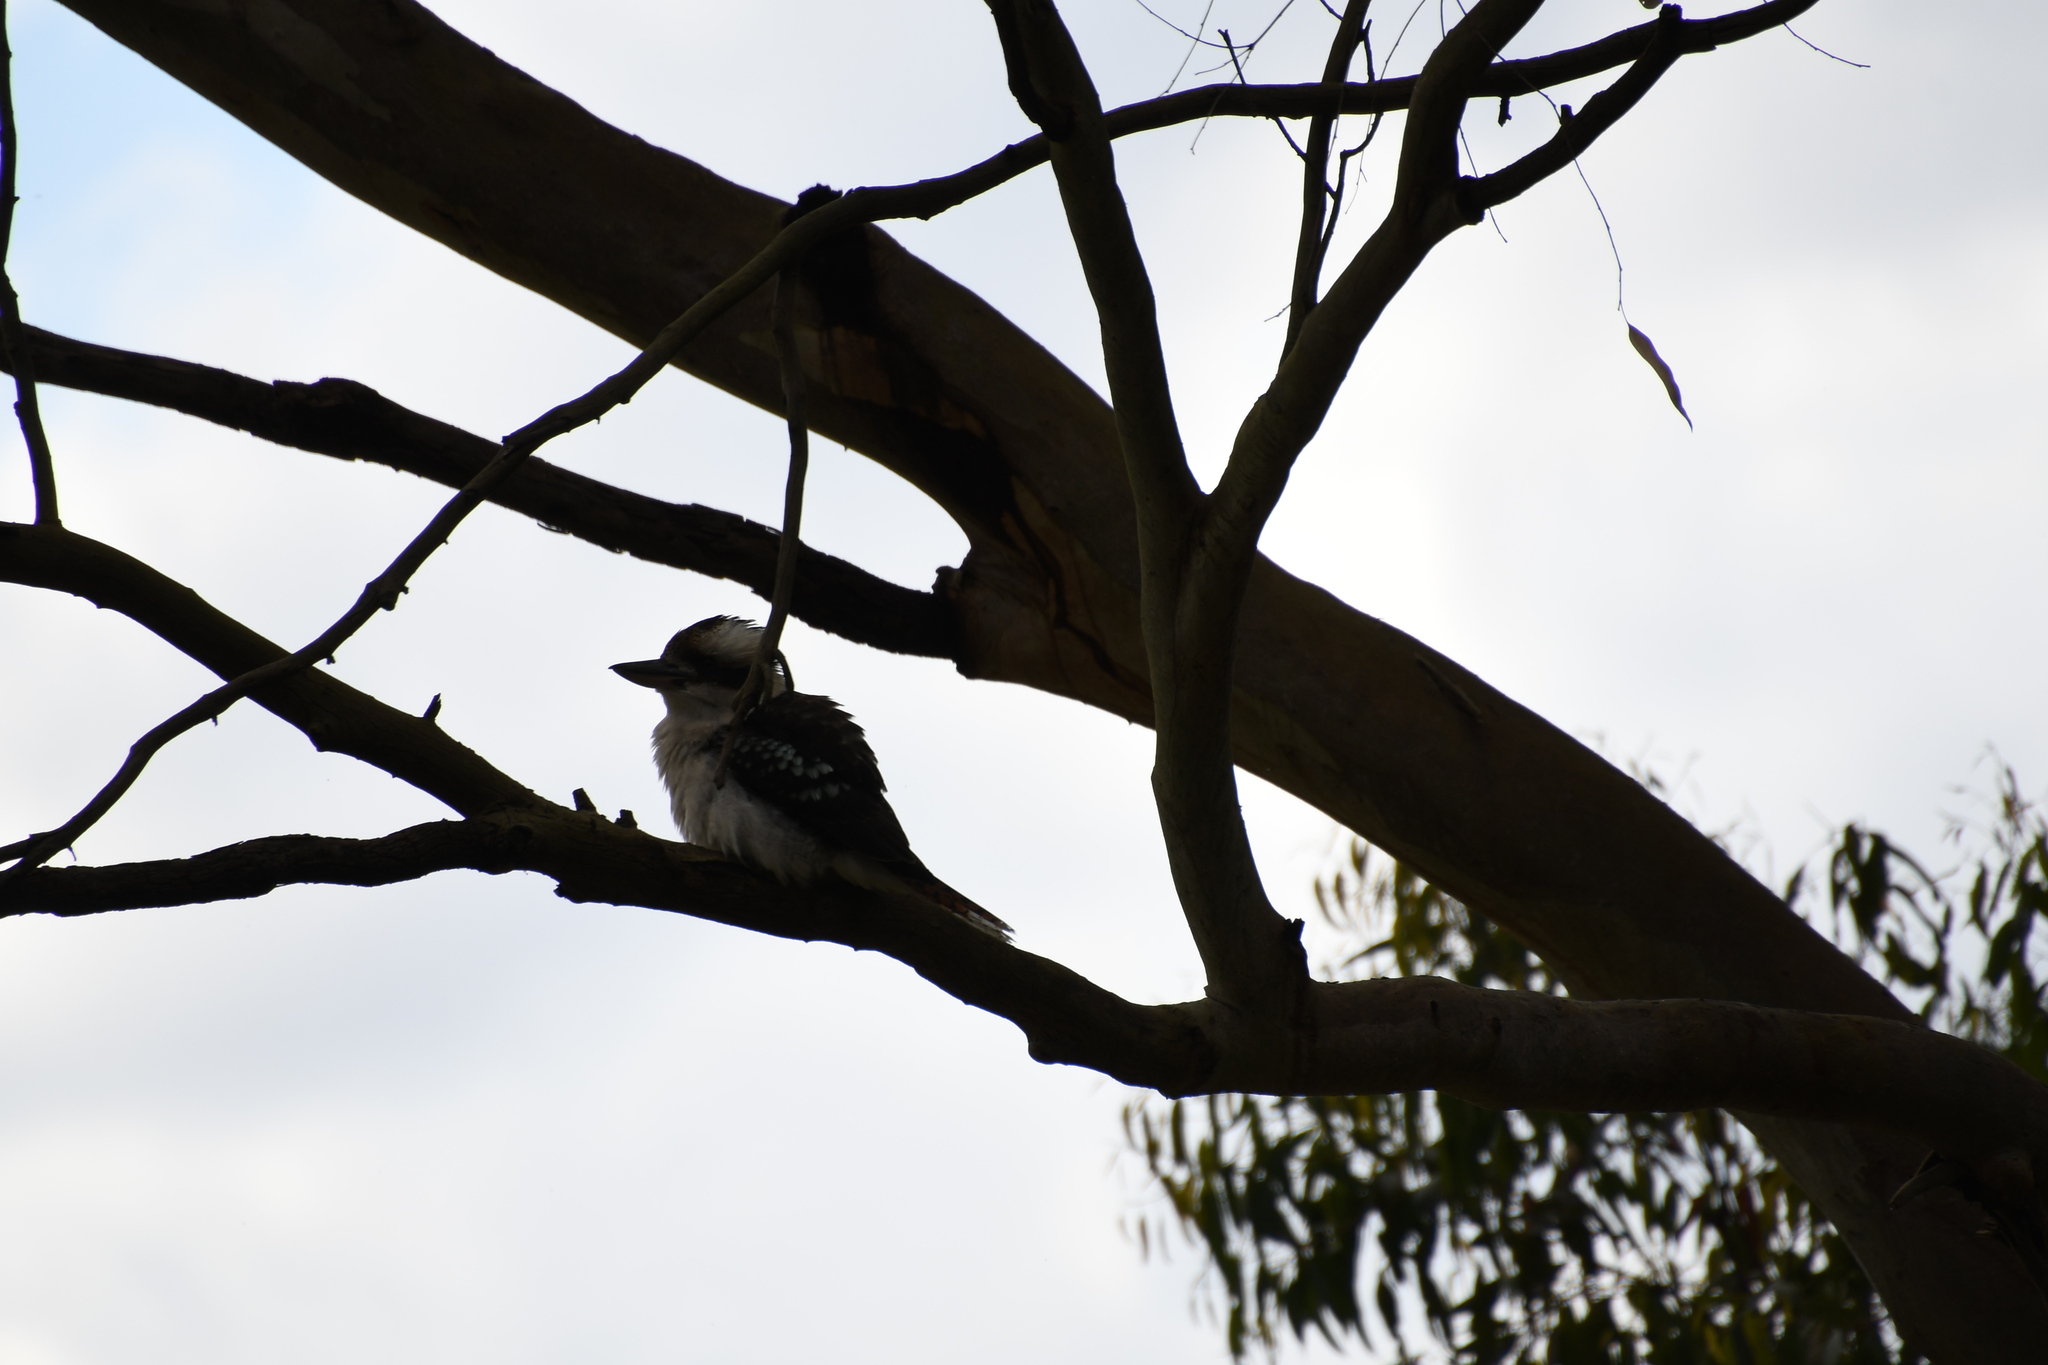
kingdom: Animalia
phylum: Chordata
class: Aves
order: Coraciiformes
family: Alcedinidae
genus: Dacelo
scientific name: Dacelo novaeguineae
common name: Laughing kookaburra
